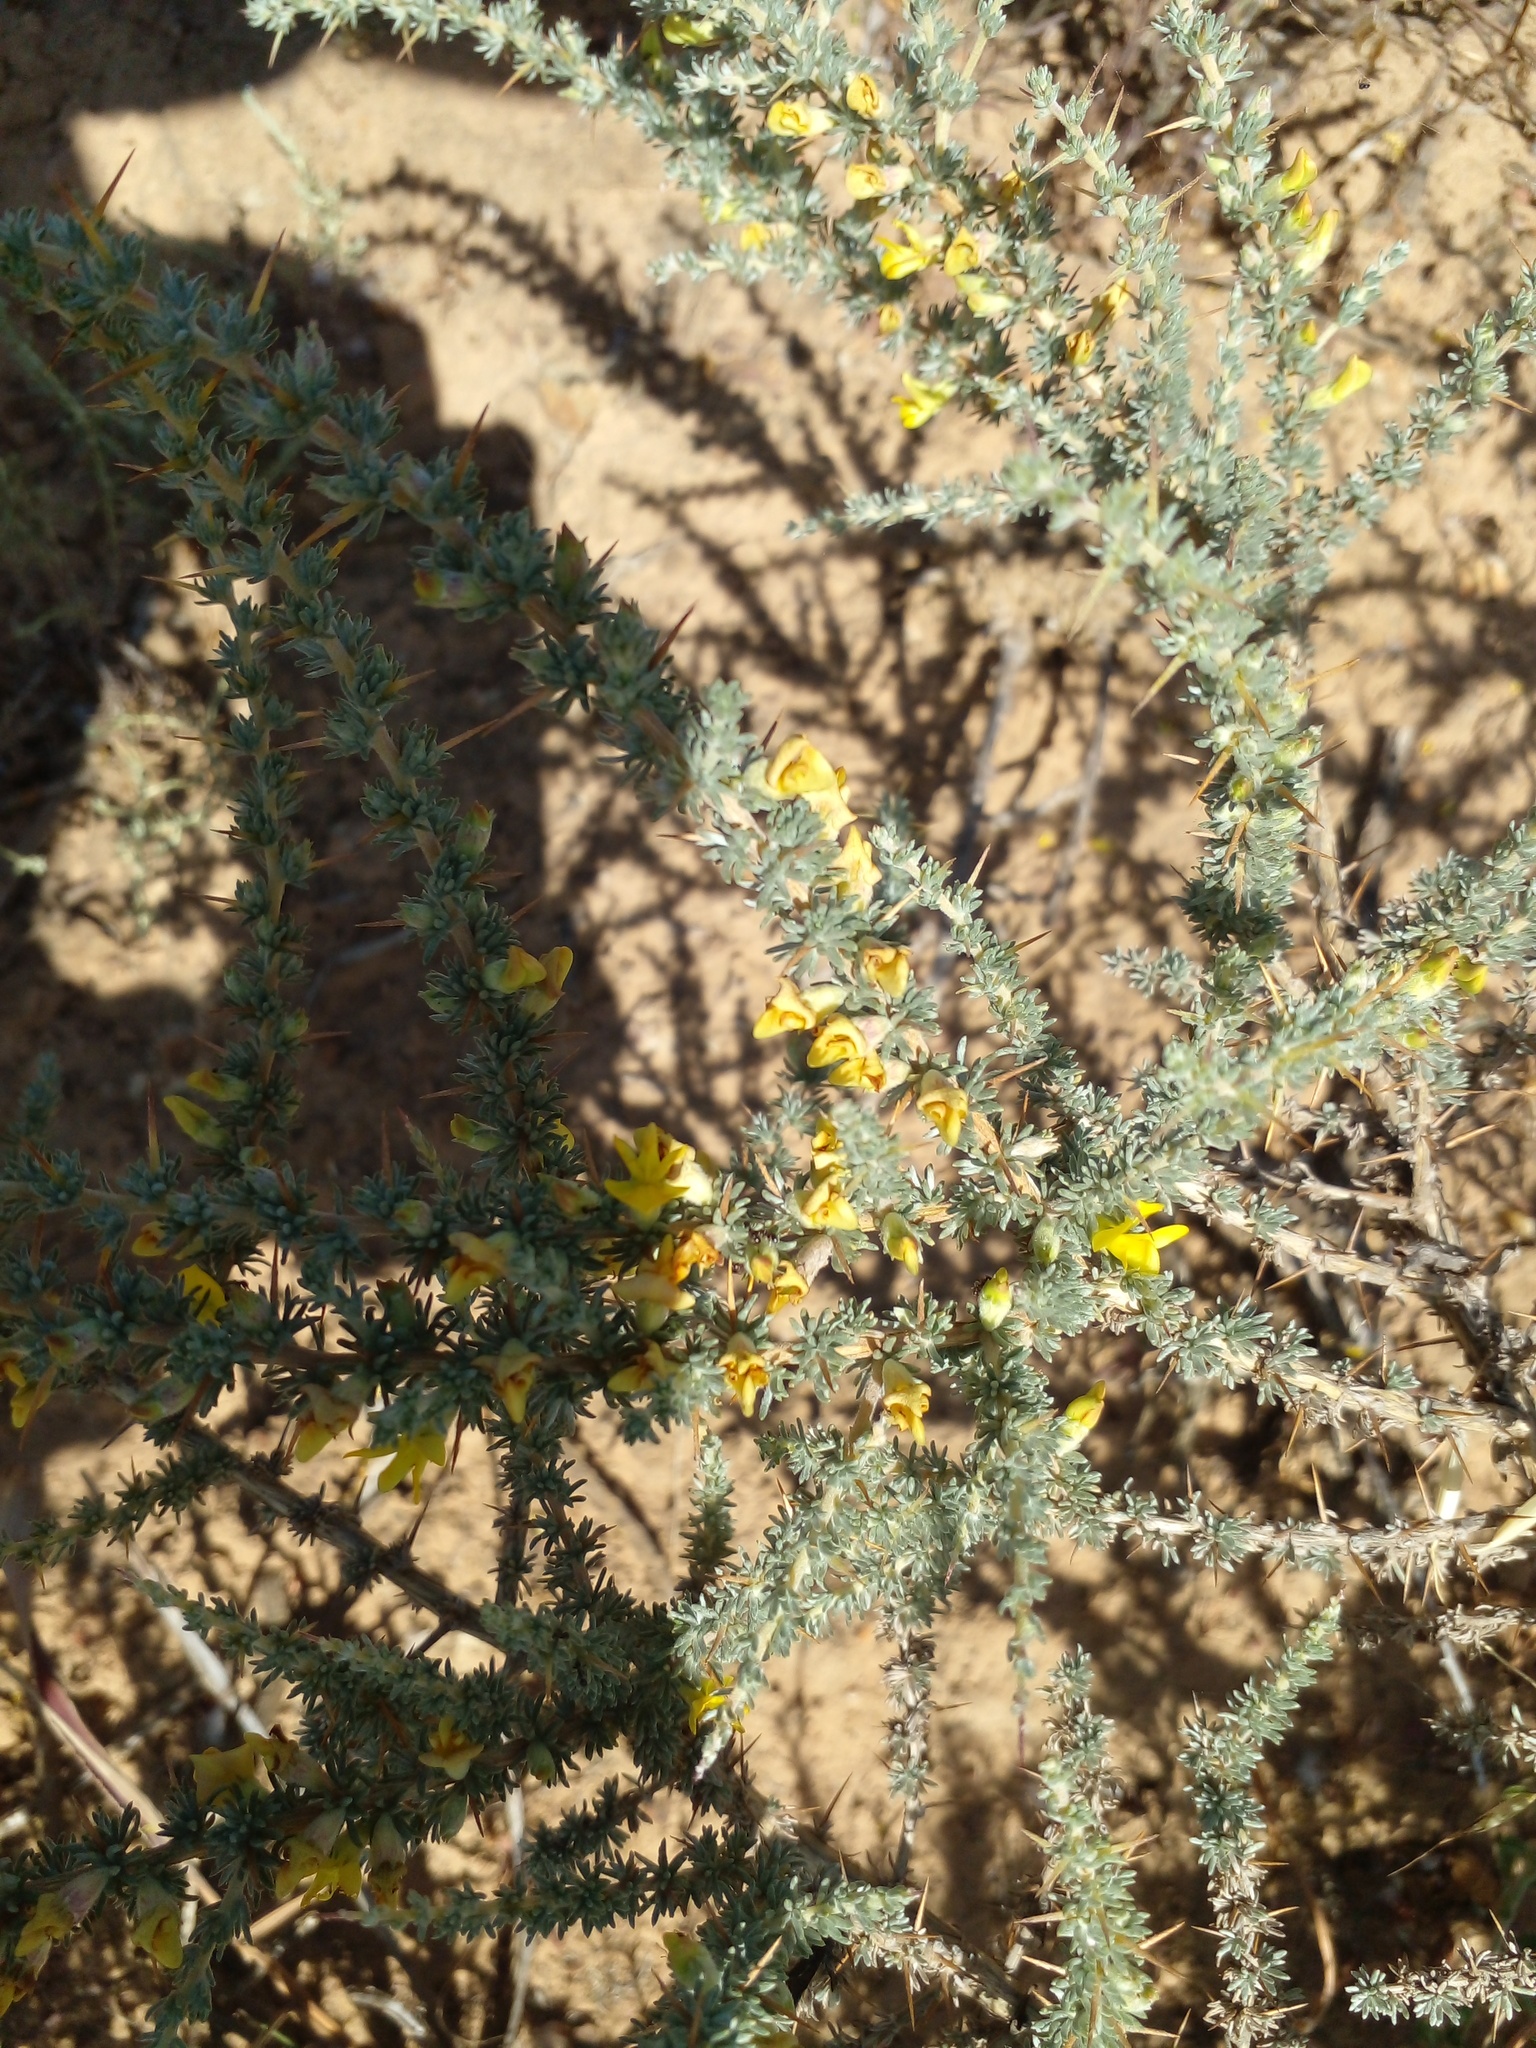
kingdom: Plantae
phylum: Tracheophyta
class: Magnoliopsida
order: Fabales
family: Fabaceae
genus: Aspalathus
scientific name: Aspalathus acanthophylla
